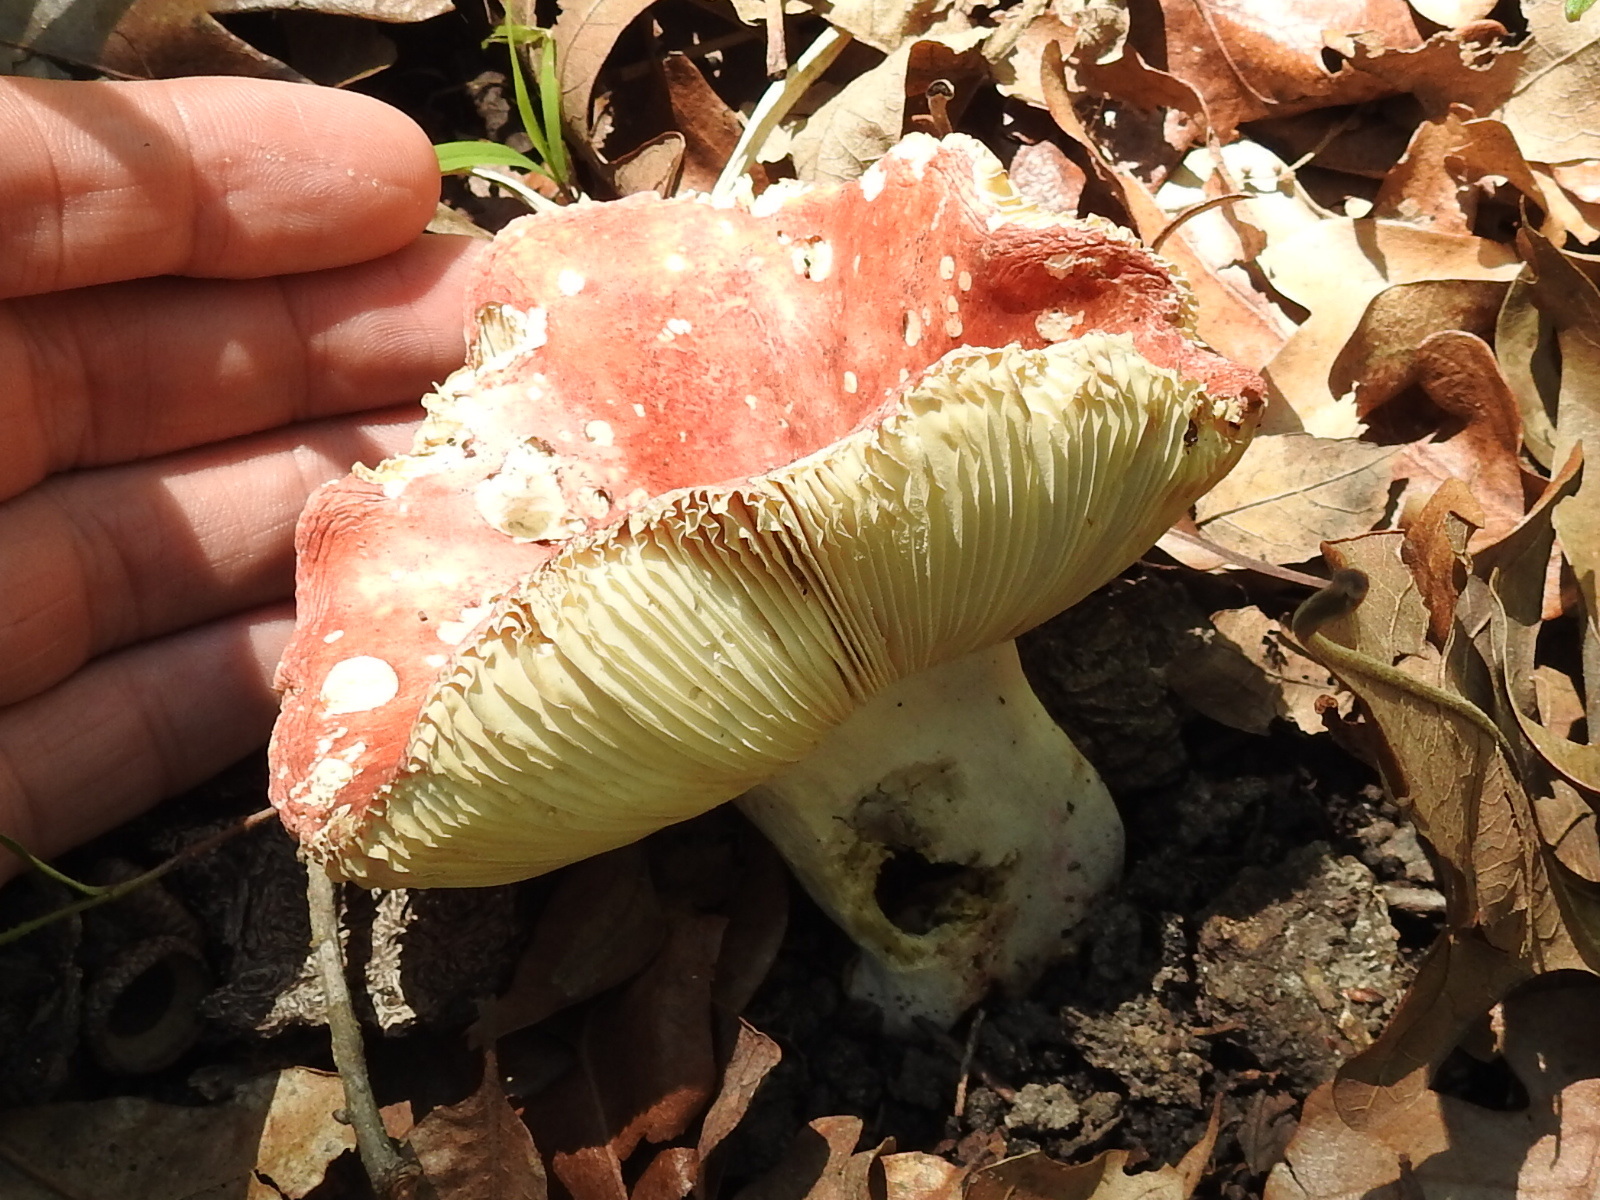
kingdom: Fungi
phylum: Basidiomycota
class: Agaricomycetes
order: Russulales
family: Russulaceae
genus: Russula
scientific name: Russula
